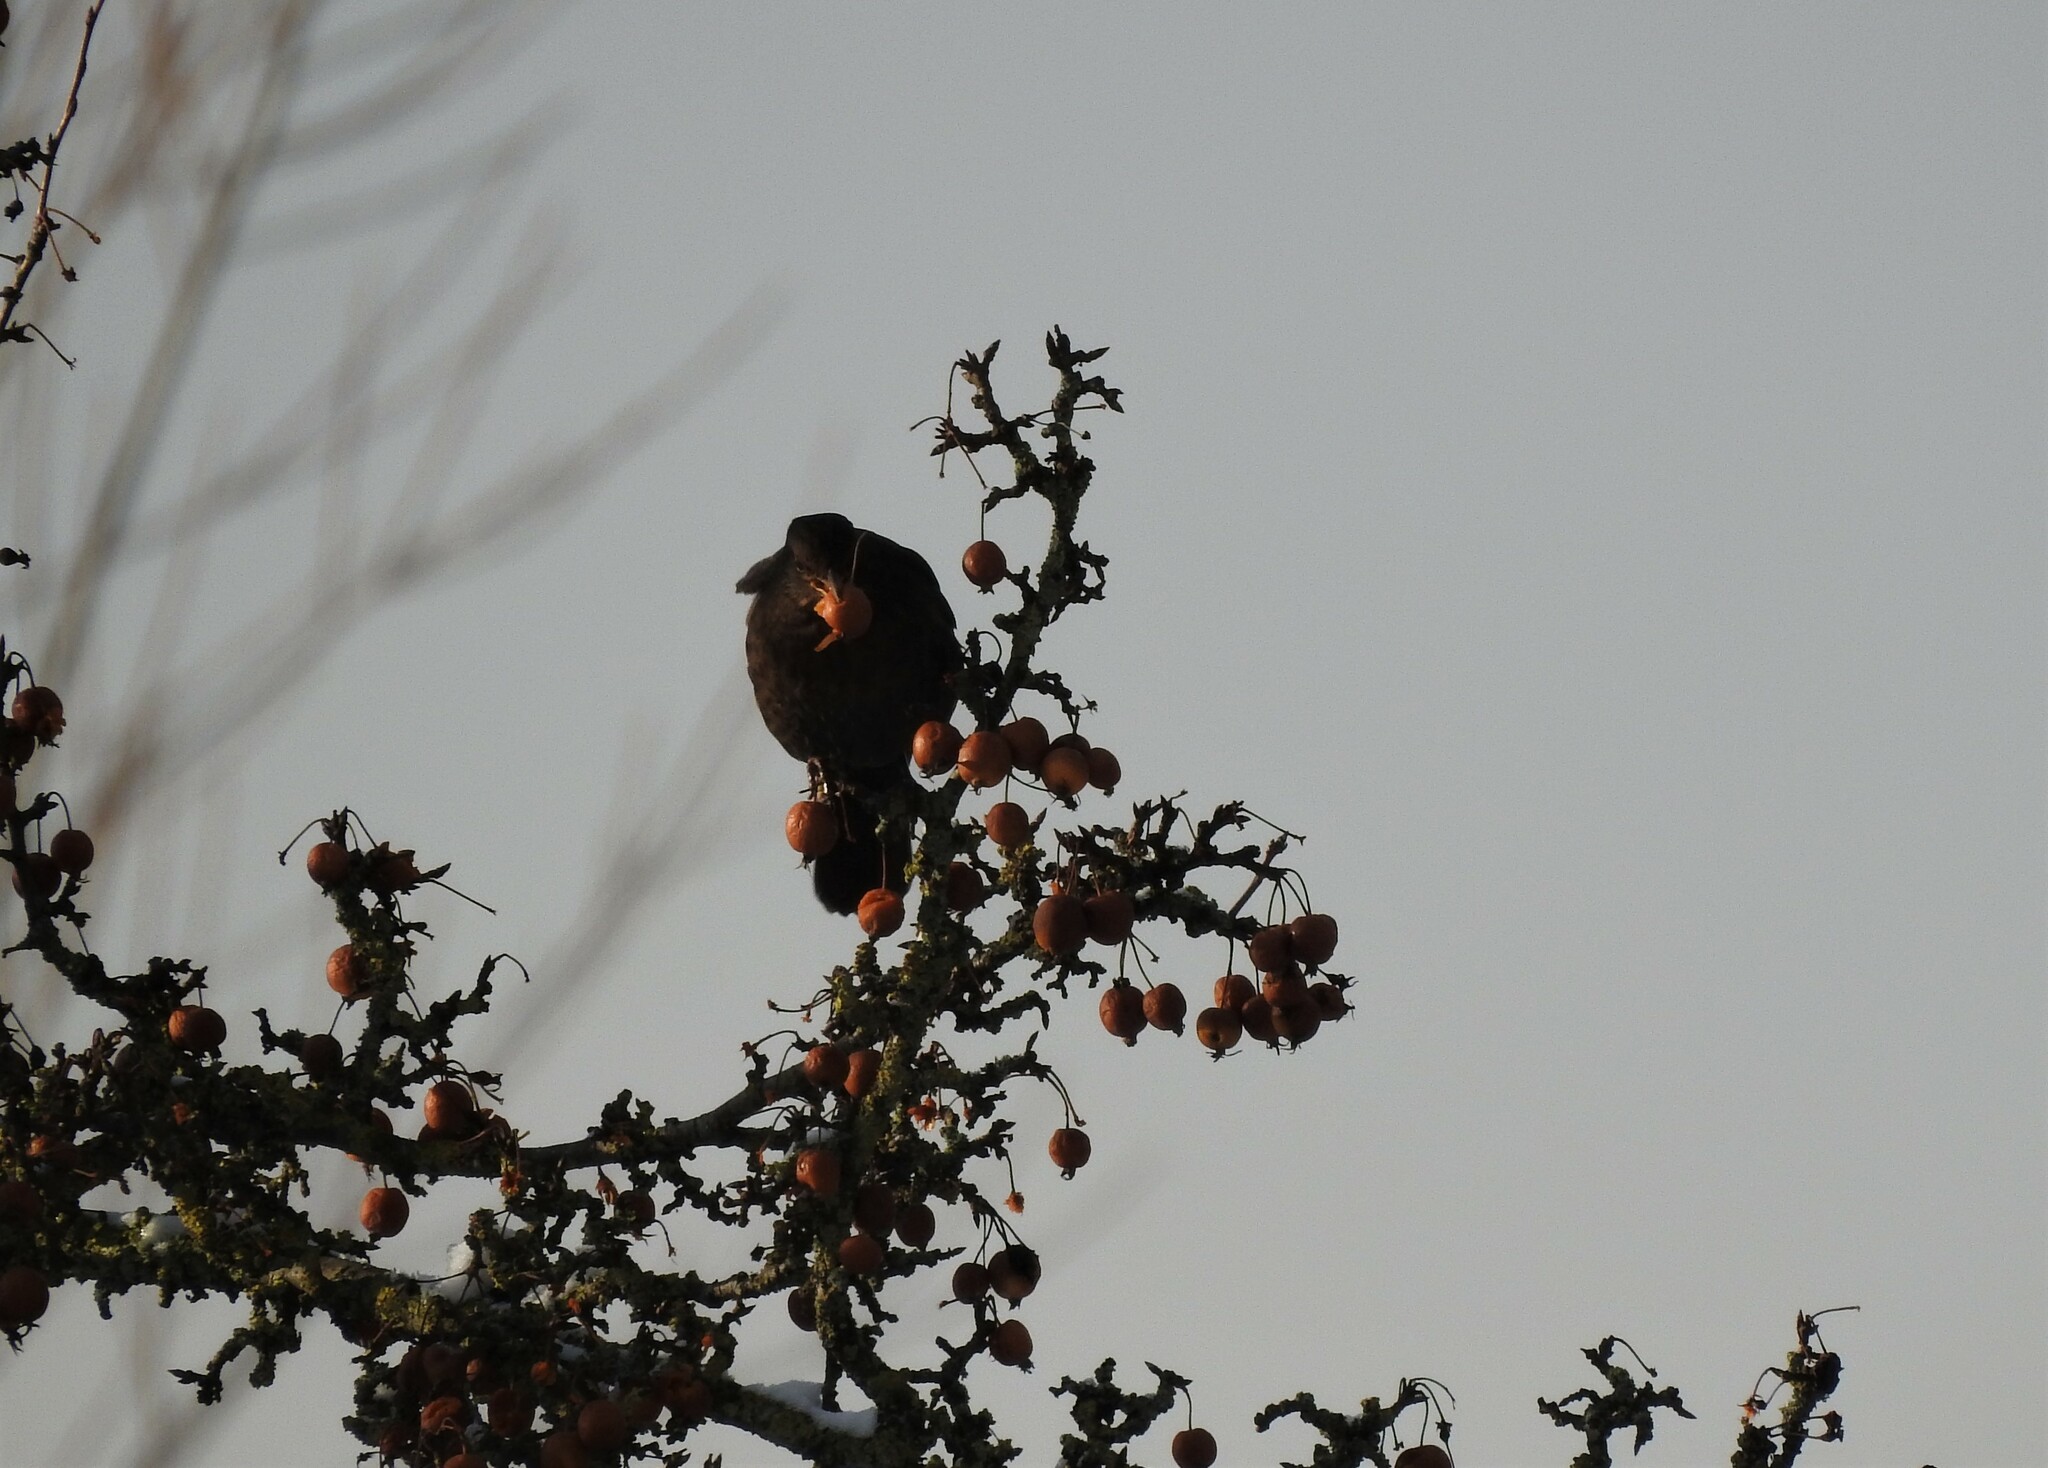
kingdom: Animalia
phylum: Chordata
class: Aves
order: Passeriformes
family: Turdidae
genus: Turdus
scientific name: Turdus merula
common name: Common blackbird
